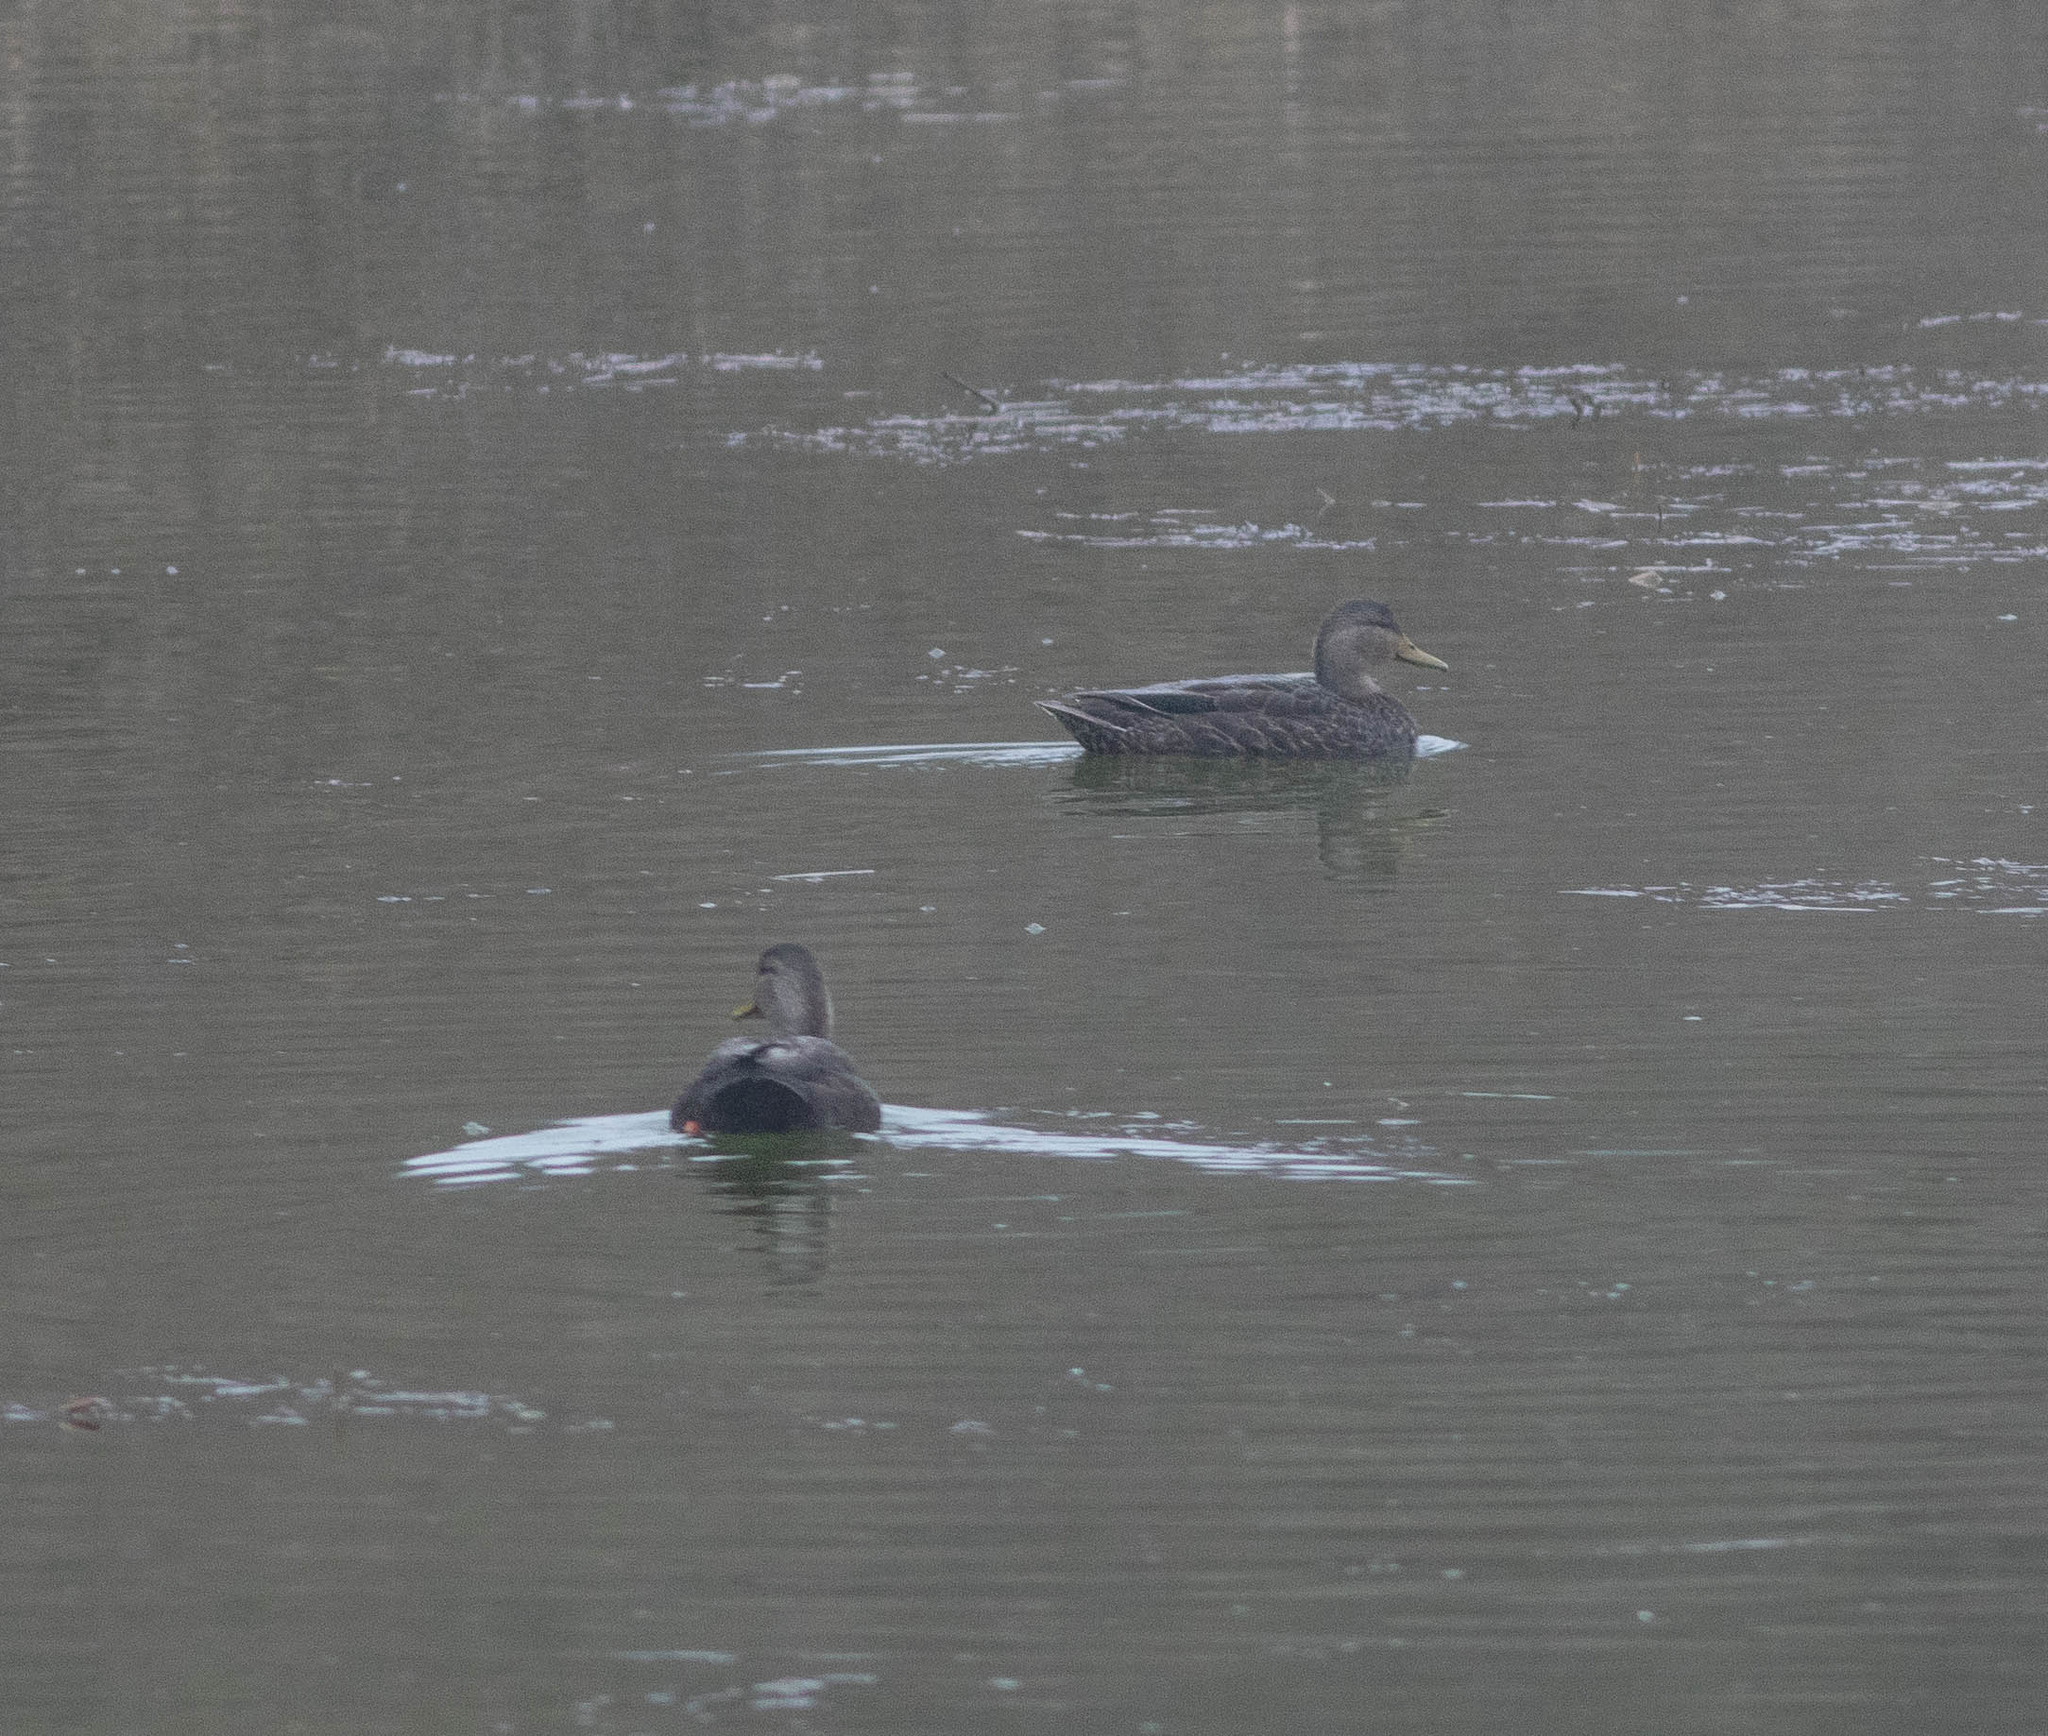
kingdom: Animalia
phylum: Chordata
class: Aves
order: Anseriformes
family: Anatidae
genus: Anas
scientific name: Anas rubripes
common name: American black duck
